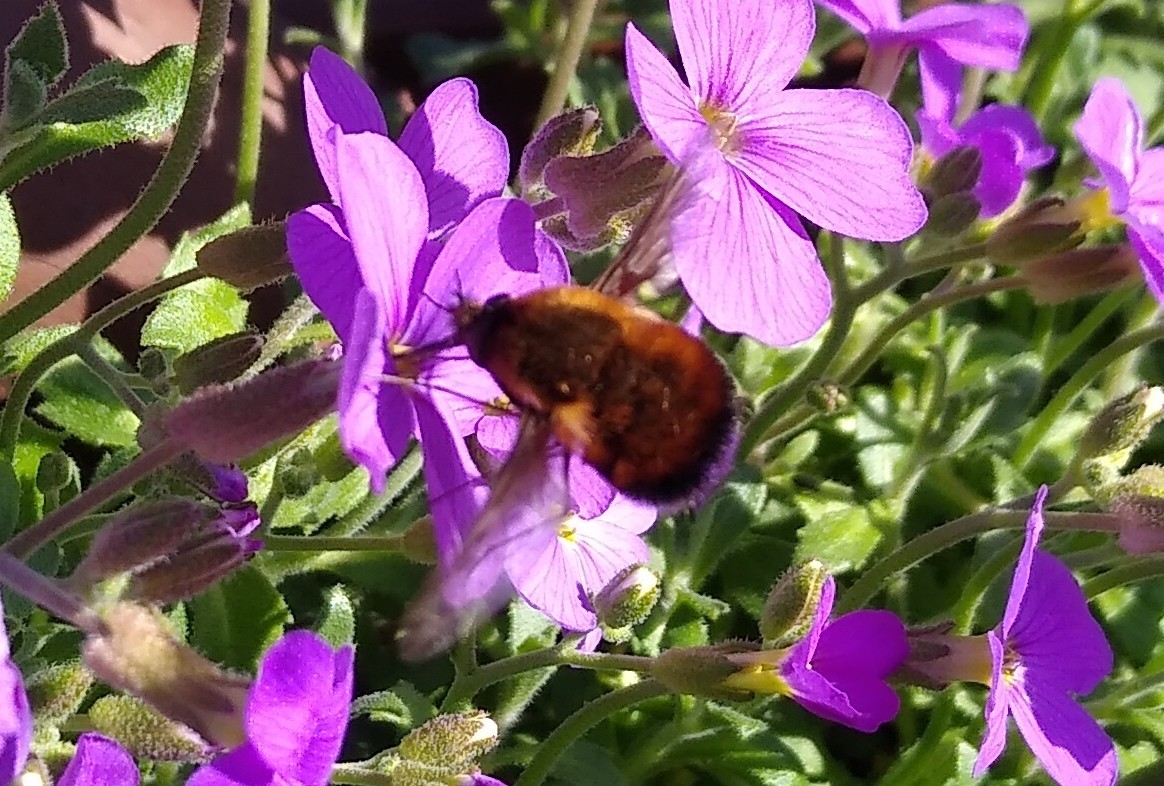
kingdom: Animalia
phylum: Arthropoda
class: Insecta
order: Diptera
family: Bombyliidae
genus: Bombylius
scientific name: Bombylius discolor
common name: Dotted bee-fly
